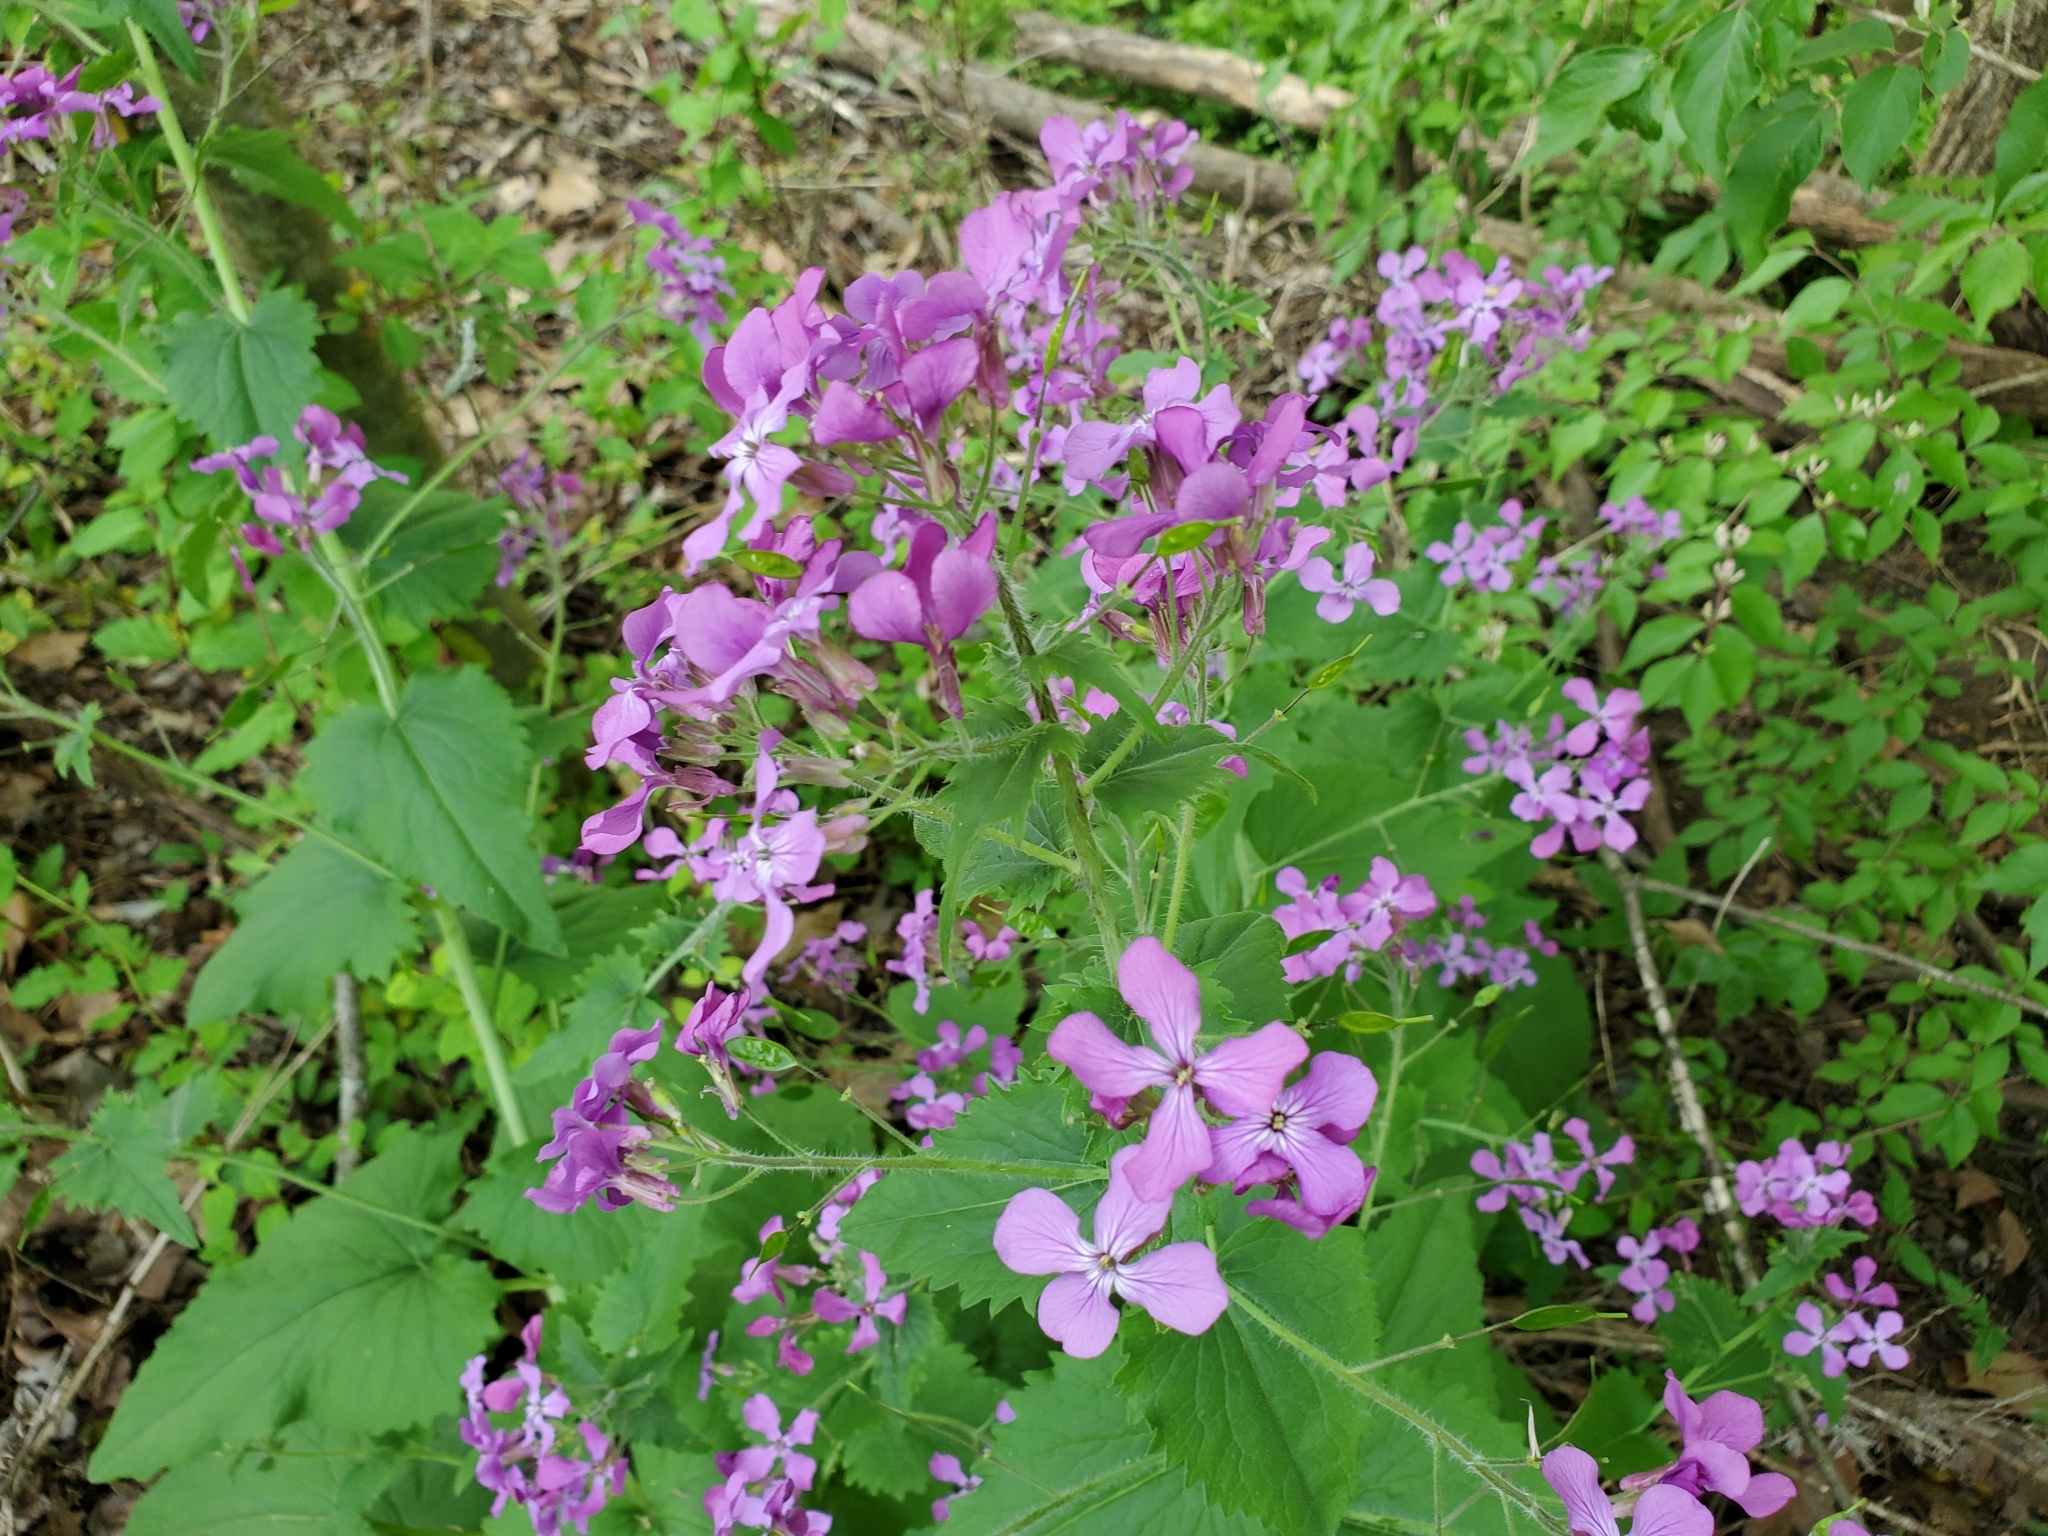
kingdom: Plantae
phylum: Tracheophyta
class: Magnoliopsida
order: Brassicales
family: Brassicaceae
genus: Lunaria
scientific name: Lunaria annua
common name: Honesty
